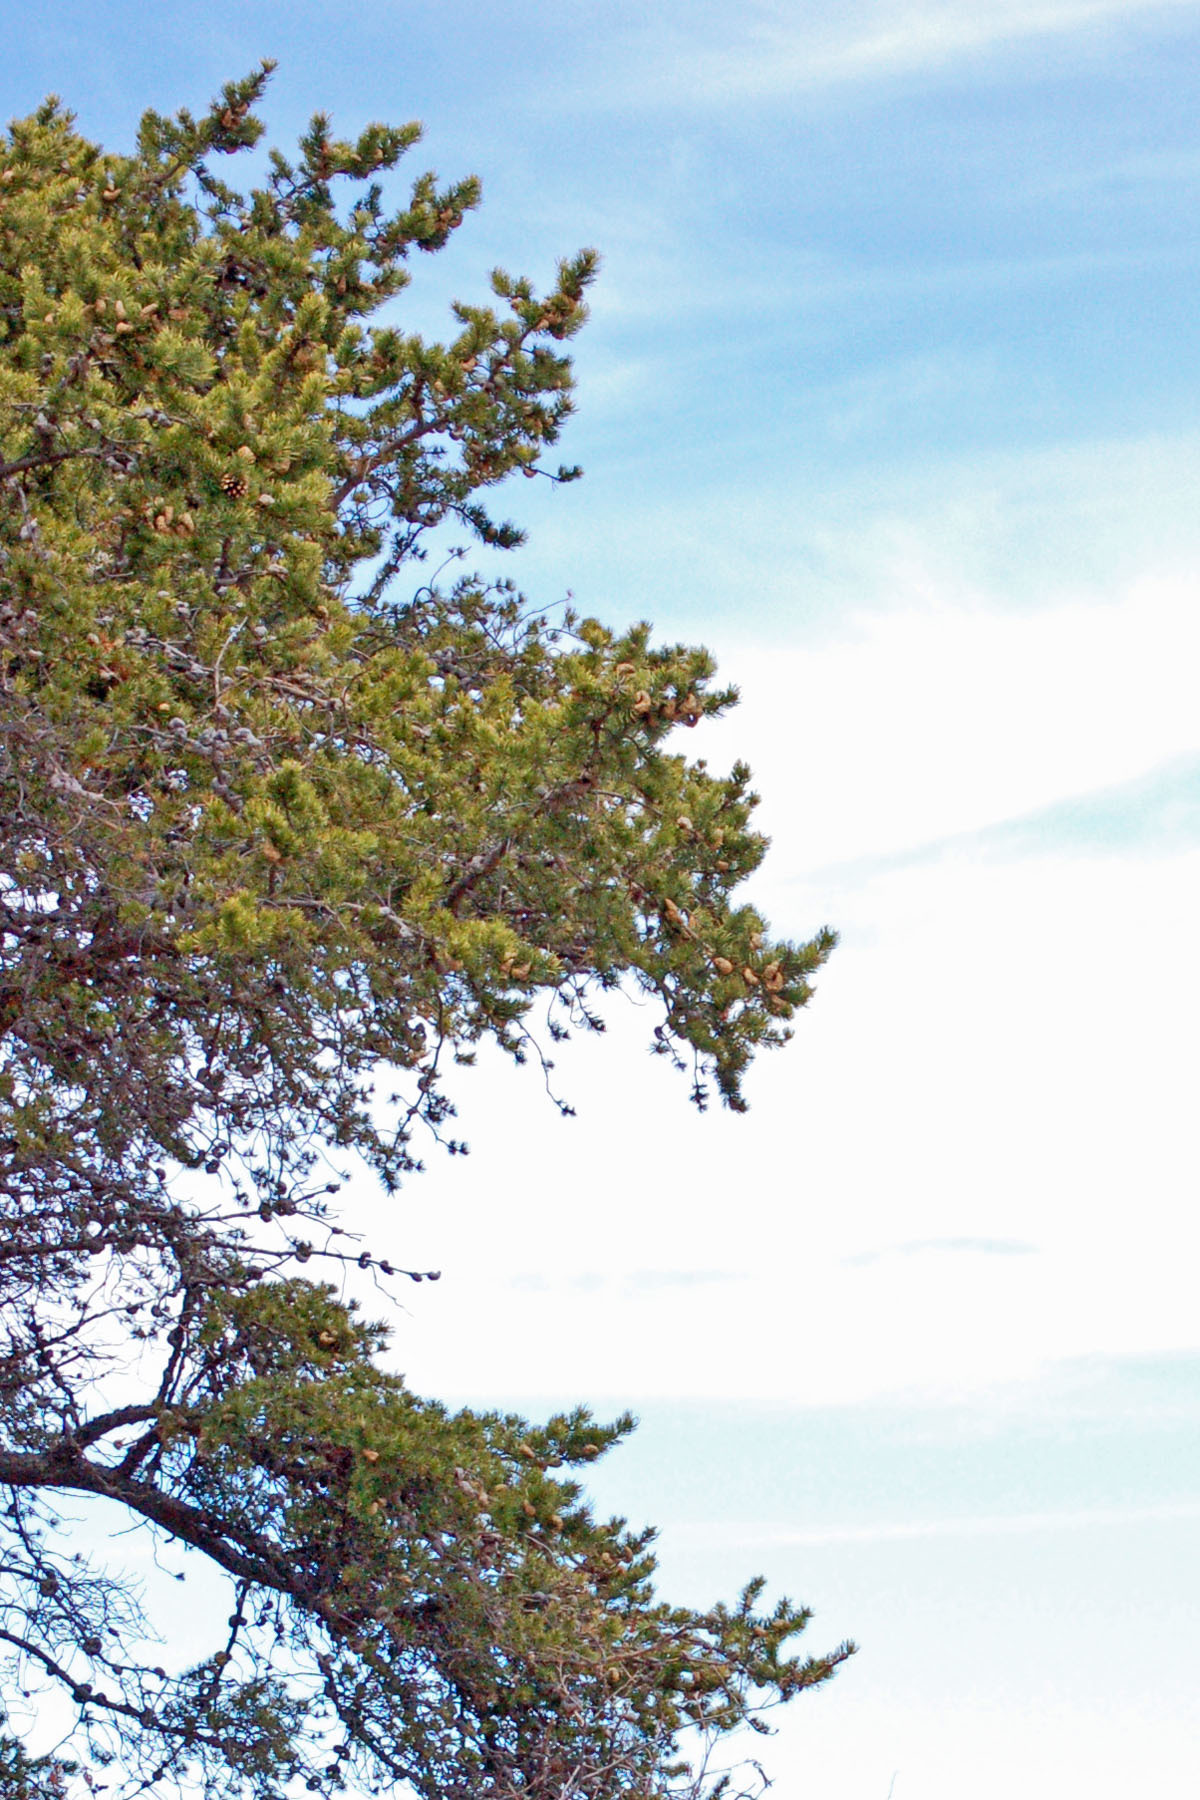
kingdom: Plantae
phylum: Tracheophyta
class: Pinopsida
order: Pinales
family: Pinaceae
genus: Pinus
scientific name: Pinus banksiana
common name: Jack pine
